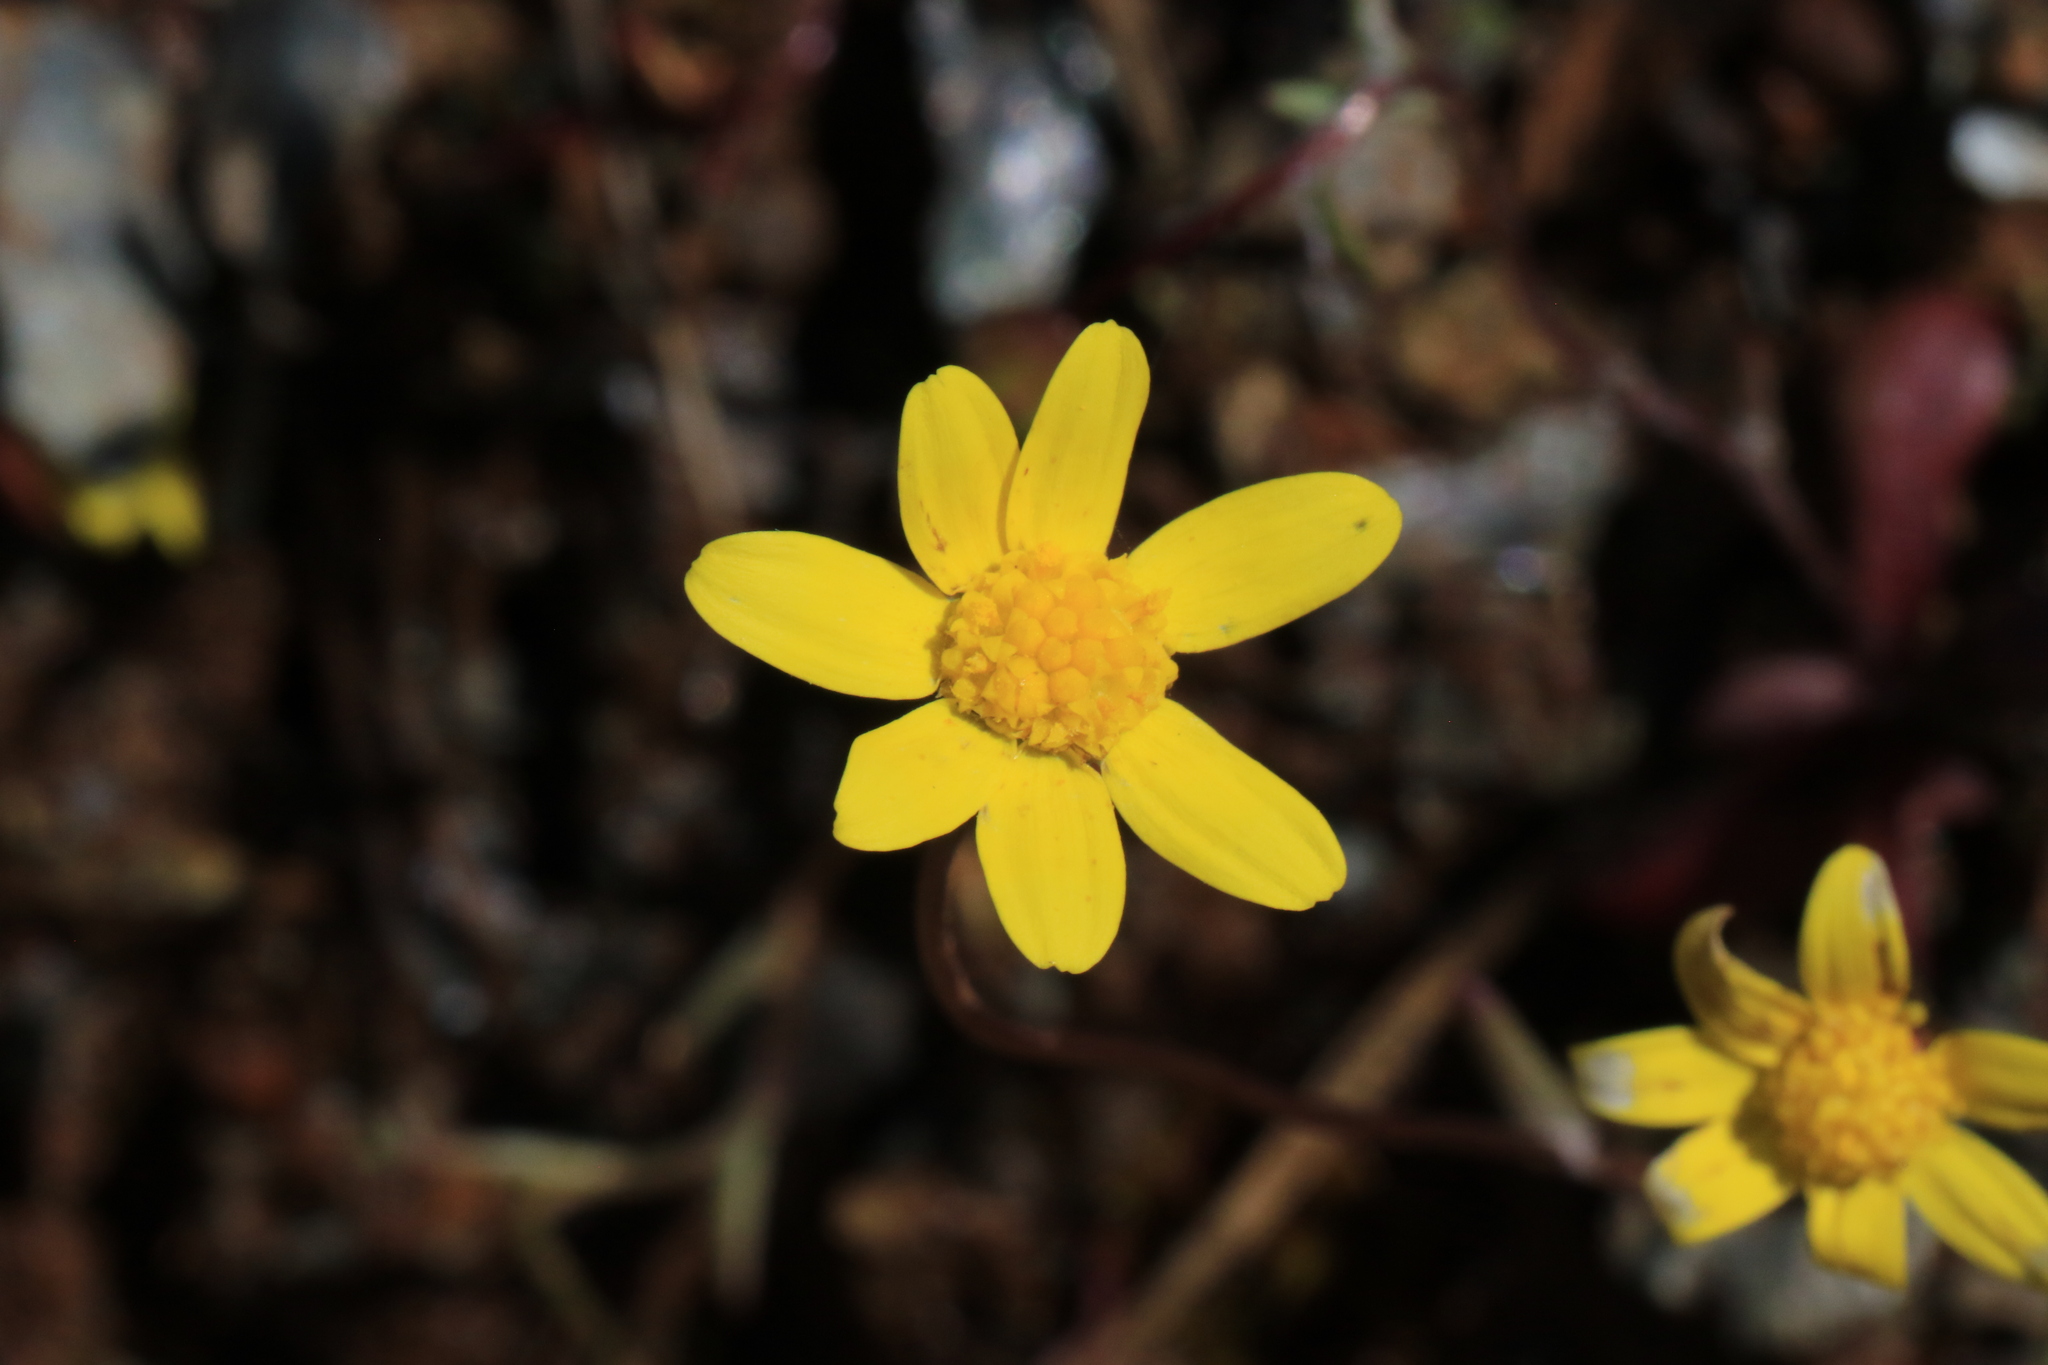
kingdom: Plantae
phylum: Tracheophyta
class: Magnoliopsida
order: Asterales
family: Asteraceae
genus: Crocidium
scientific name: Crocidium multicaule
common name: Common spring gold
